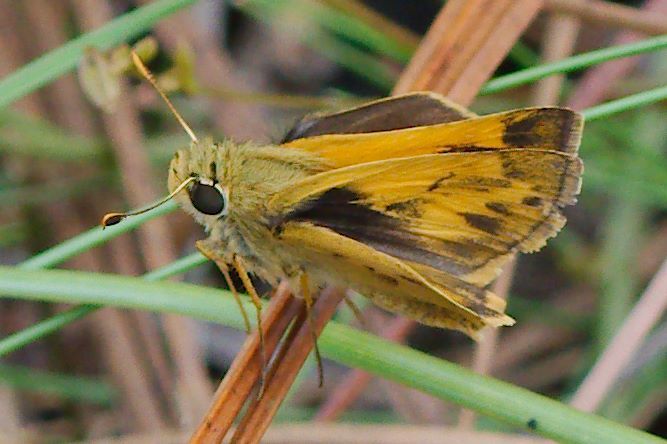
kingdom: Animalia
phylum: Arthropoda
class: Insecta
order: Lepidoptera
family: Hesperiidae
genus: Polites
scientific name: Polites vibex
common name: Whirlabout
